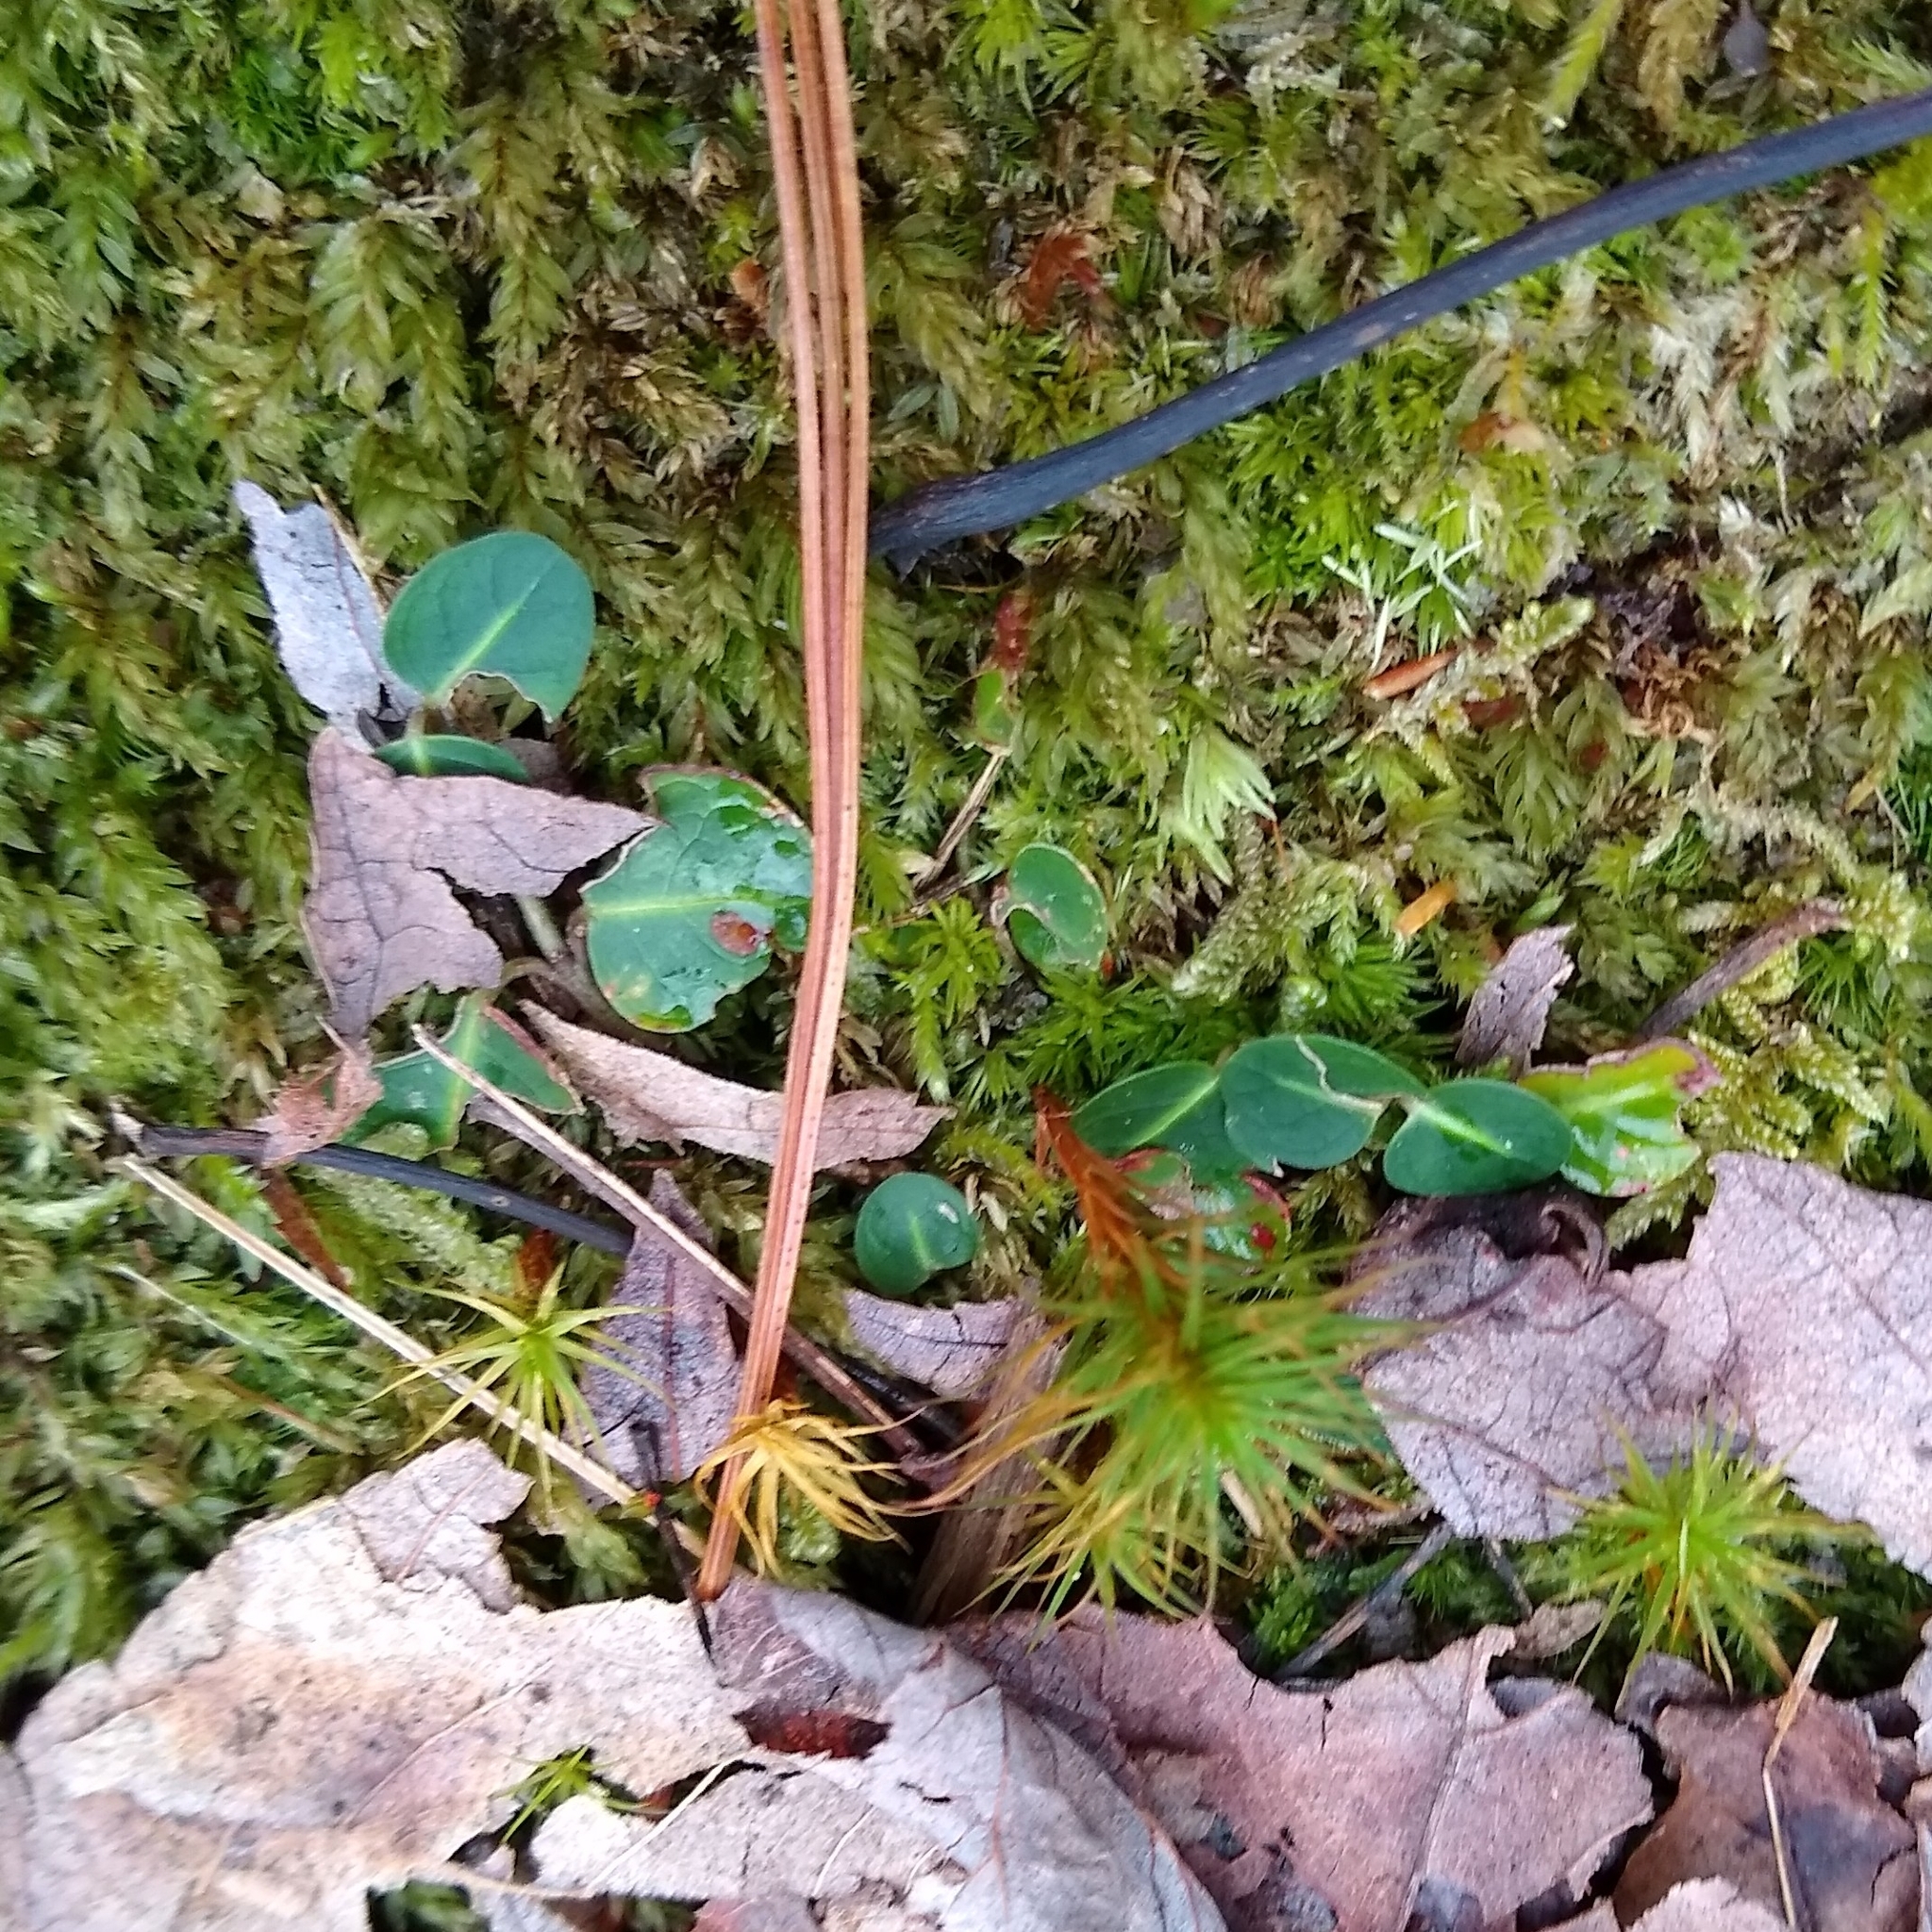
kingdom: Plantae
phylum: Tracheophyta
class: Magnoliopsida
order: Gentianales
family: Rubiaceae
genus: Mitchella
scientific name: Mitchella repens
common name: Partridge-berry
